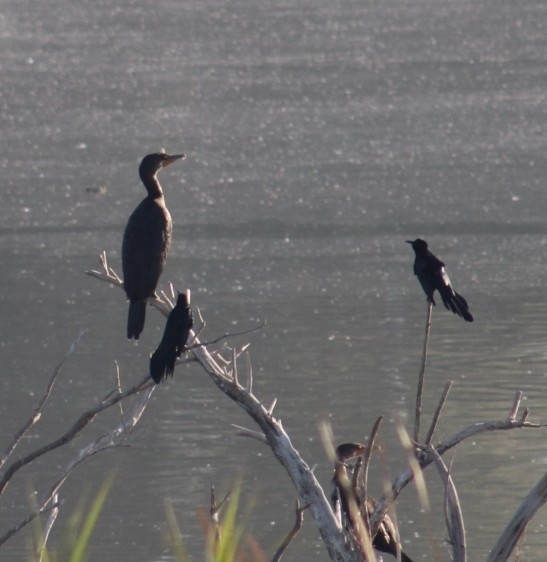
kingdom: Animalia
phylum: Chordata
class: Aves
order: Suliformes
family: Phalacrocoracidae
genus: Phalacrocorax
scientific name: Phalacrocorax brasilianus
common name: Neotropic cormorant
